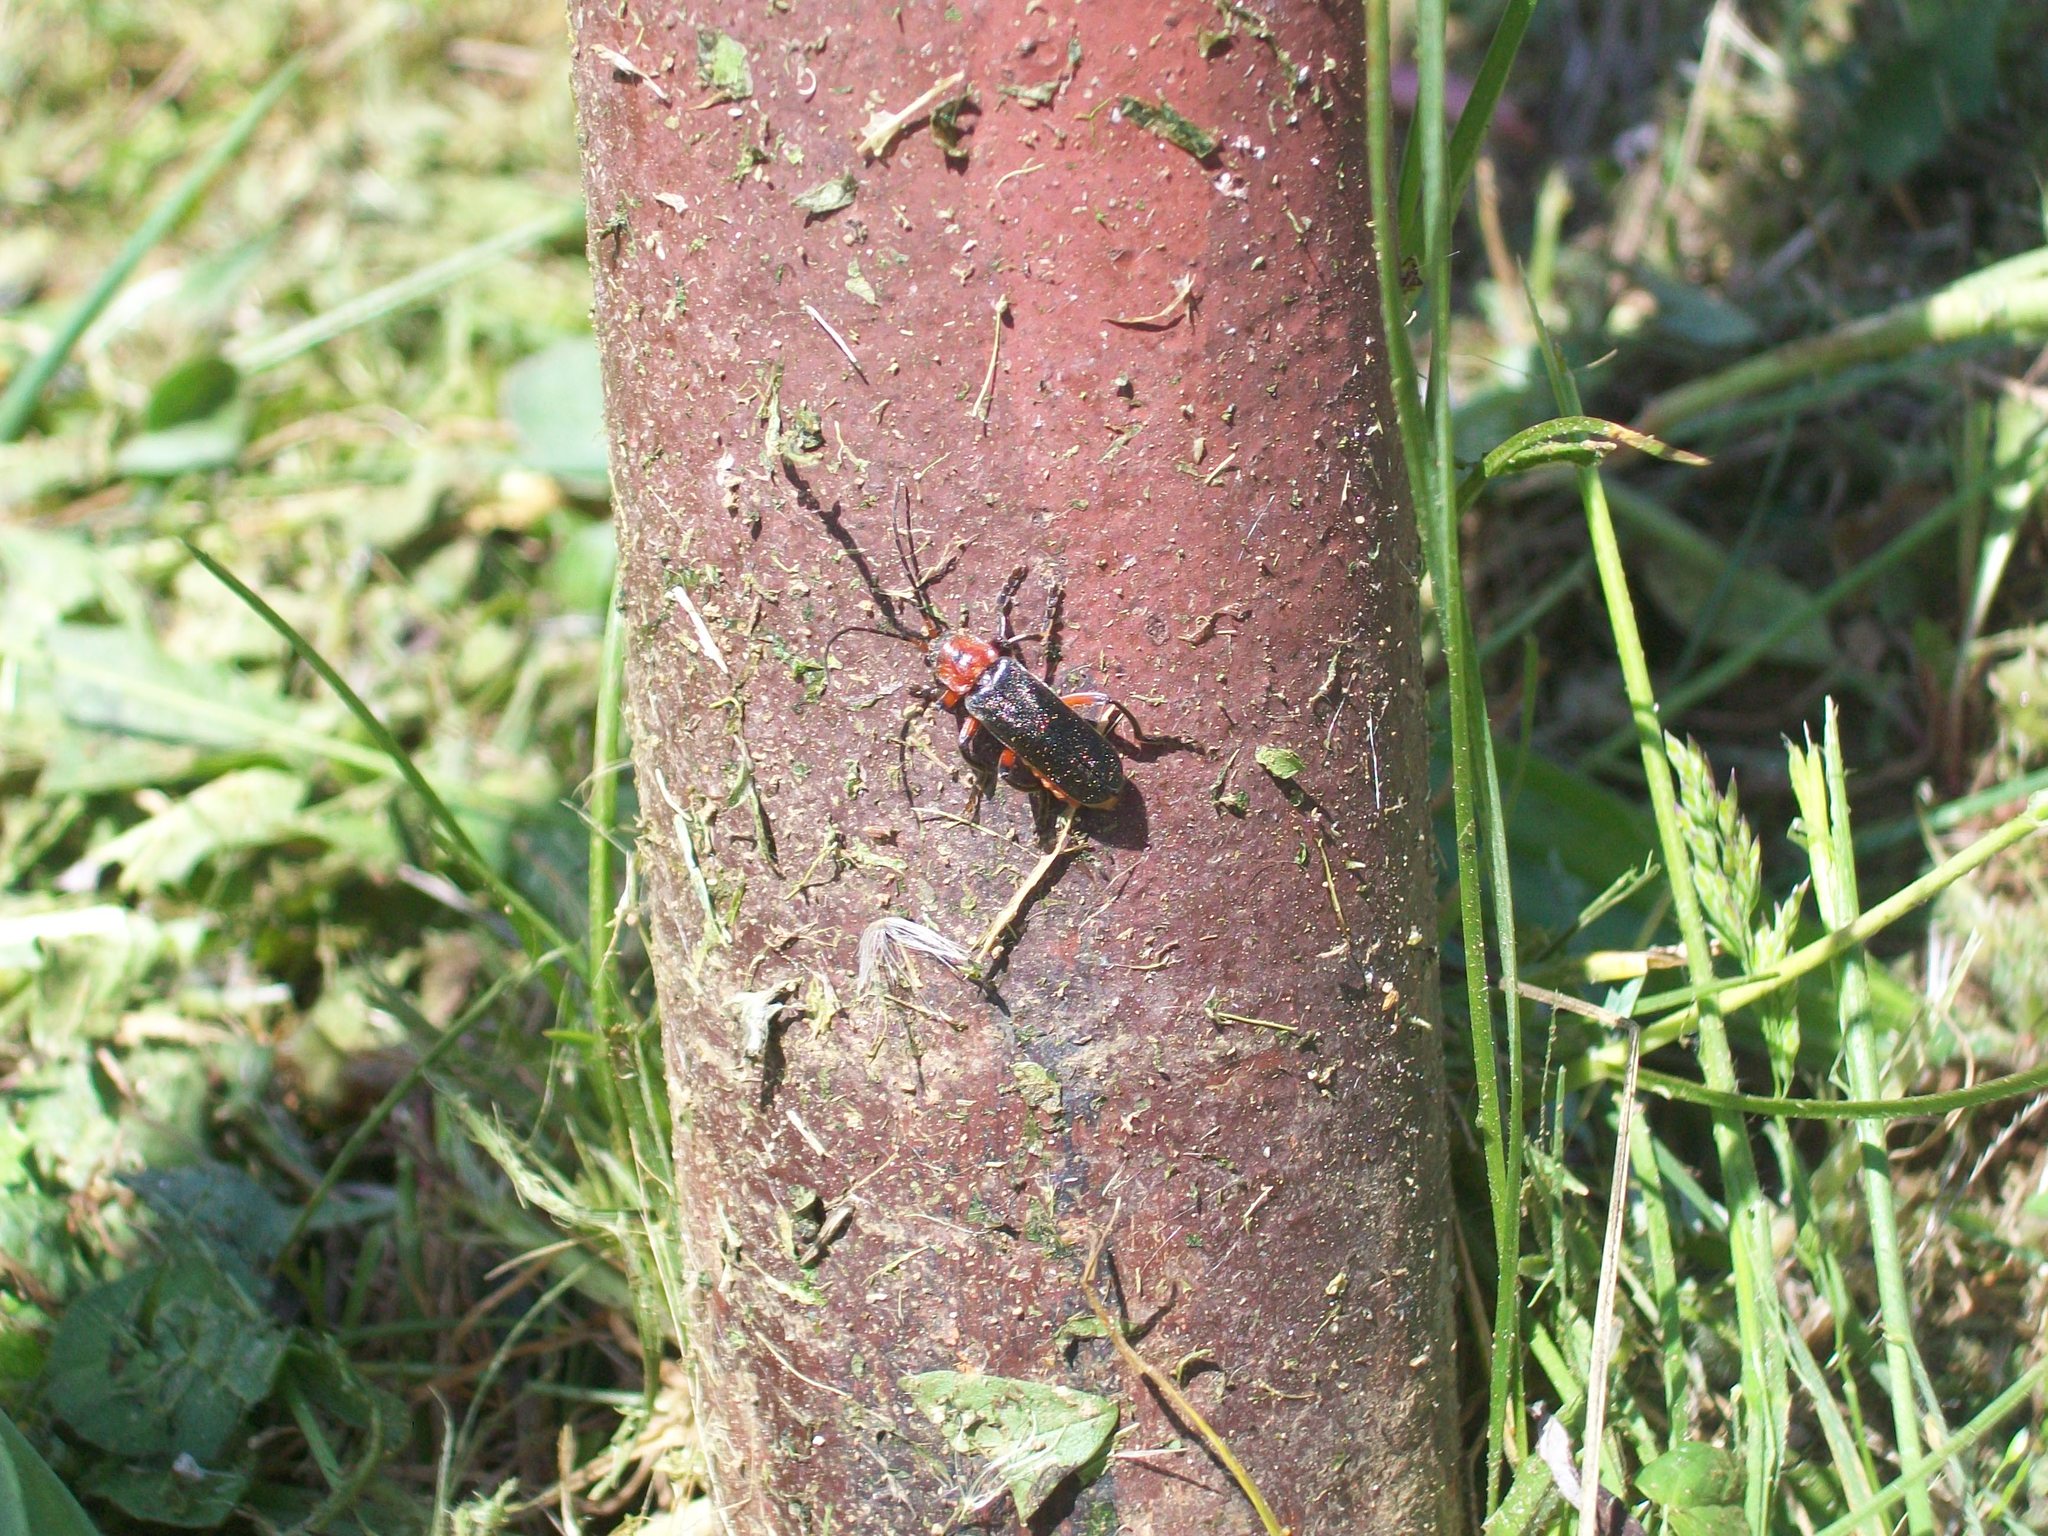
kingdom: Animalia
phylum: Arthropoda
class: Insecta
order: Coleoptera
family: Cantharidae
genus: Cantharis
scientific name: Cantharis rustica
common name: Soldier beetle
